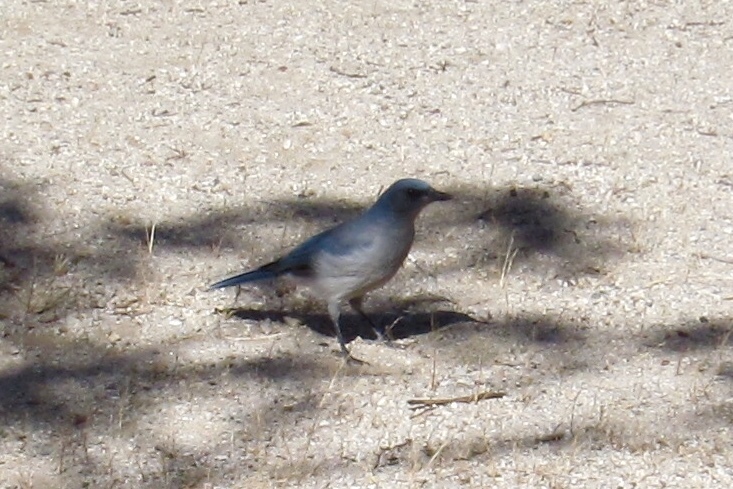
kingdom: Animalia
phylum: Chordata
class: Aves
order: Passeriformes
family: Corvidae
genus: Aphelocoma
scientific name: Aphelocoma wollweberi
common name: Mexican jay
